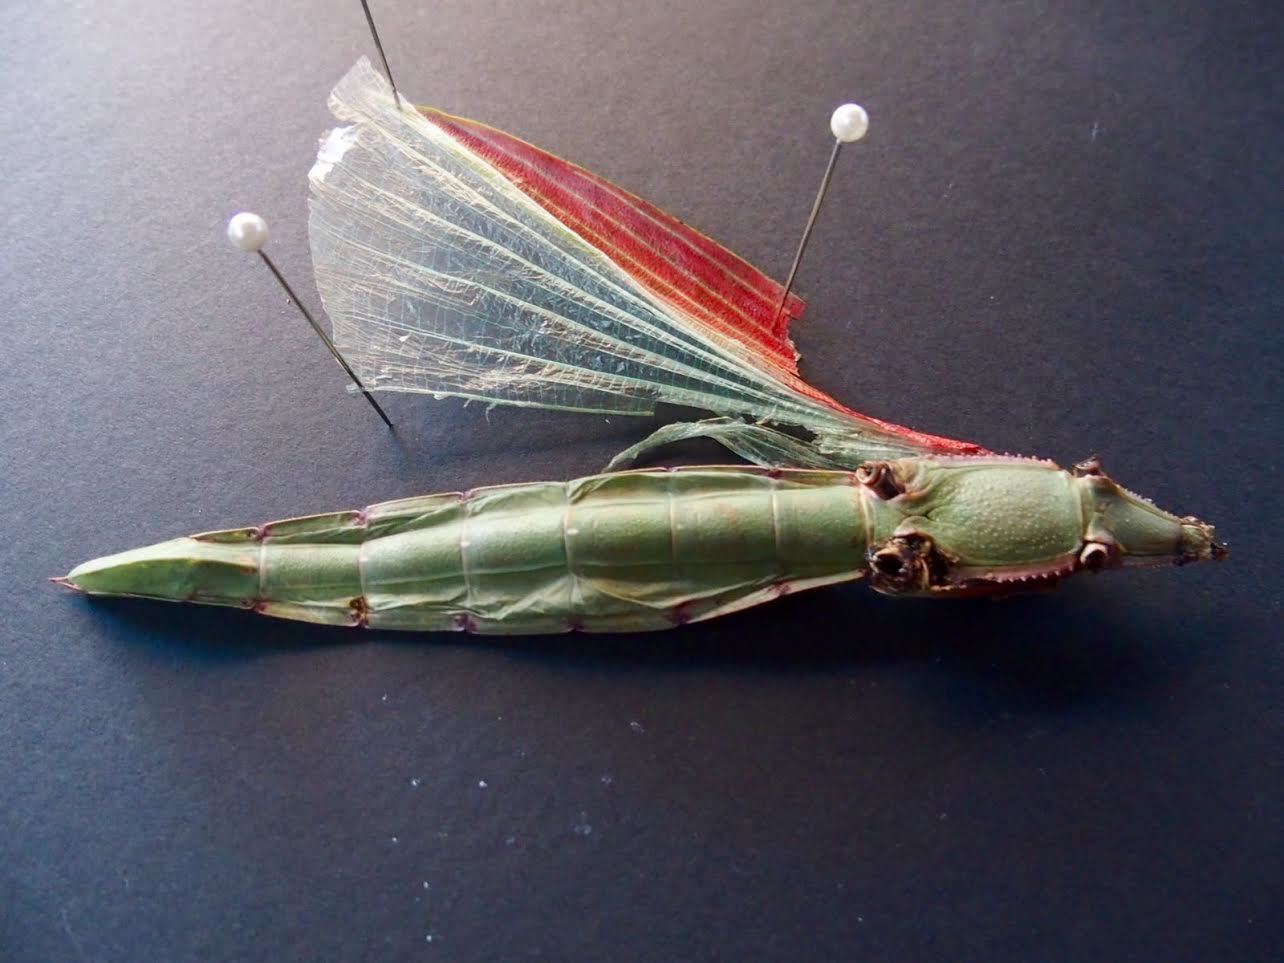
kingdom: Animalia
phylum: Arthropoda
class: Insecta
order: Phasmida
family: Phasmatidae
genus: Tropidoderus
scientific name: Tropidoderus rhodomus
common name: Red-shouldered stick-insect
